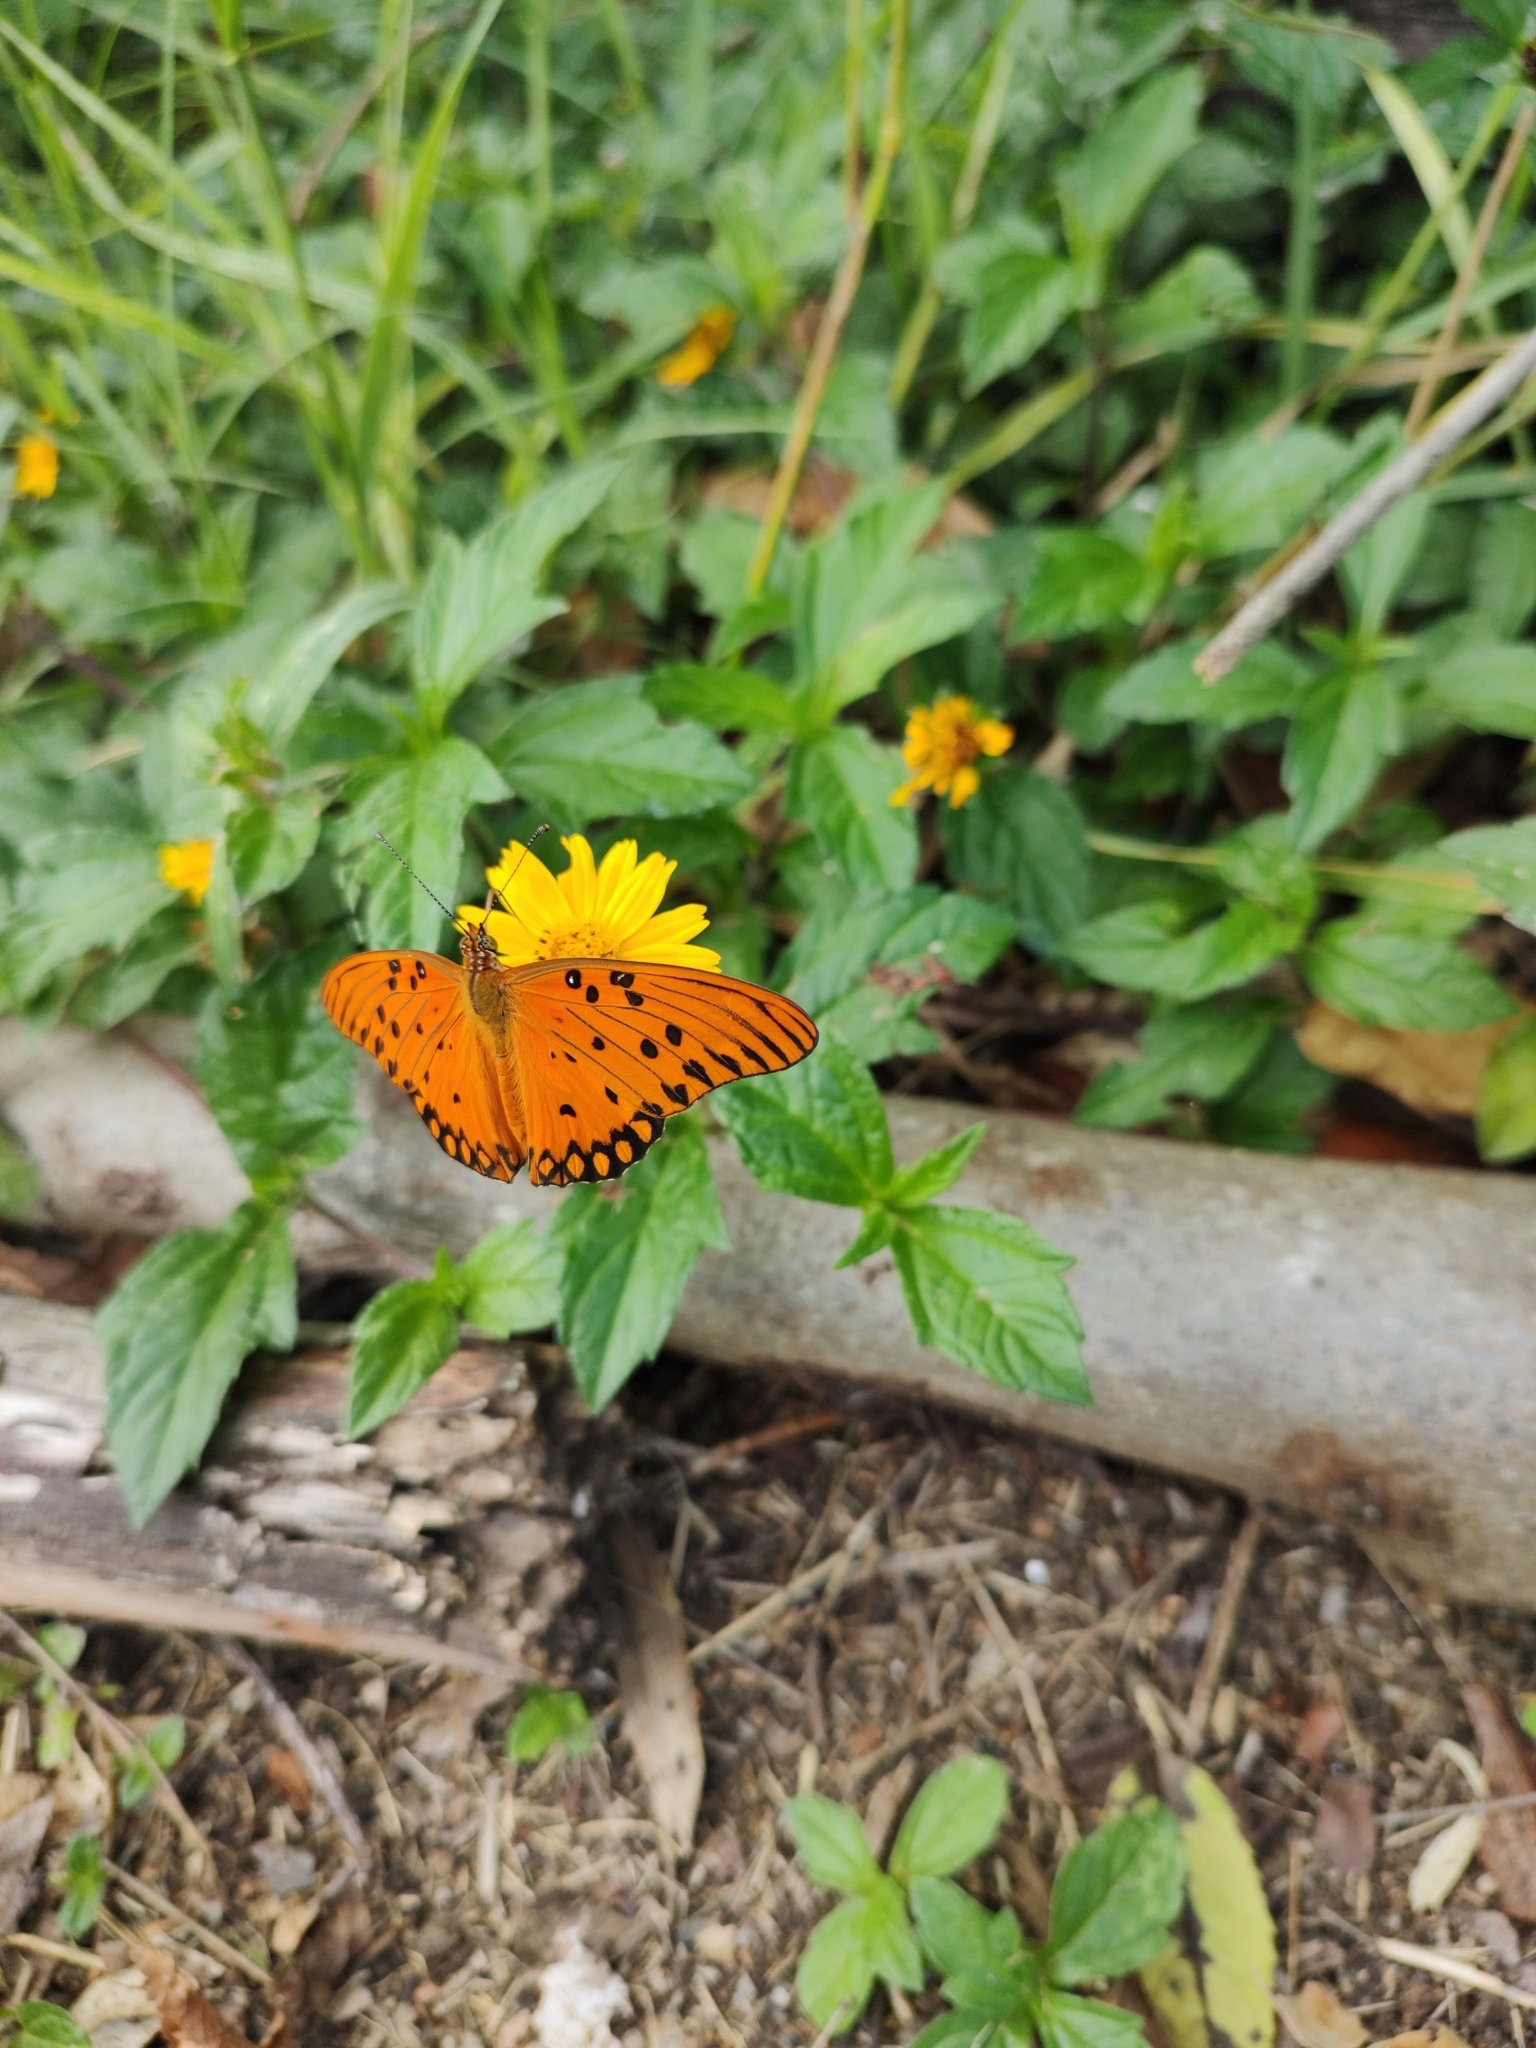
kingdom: Animalia
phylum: Arthropoda
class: Insecta
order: Lepidoptera
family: Nymphalidae
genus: Dione
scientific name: Dione vanillae
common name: Gulf fritillary
